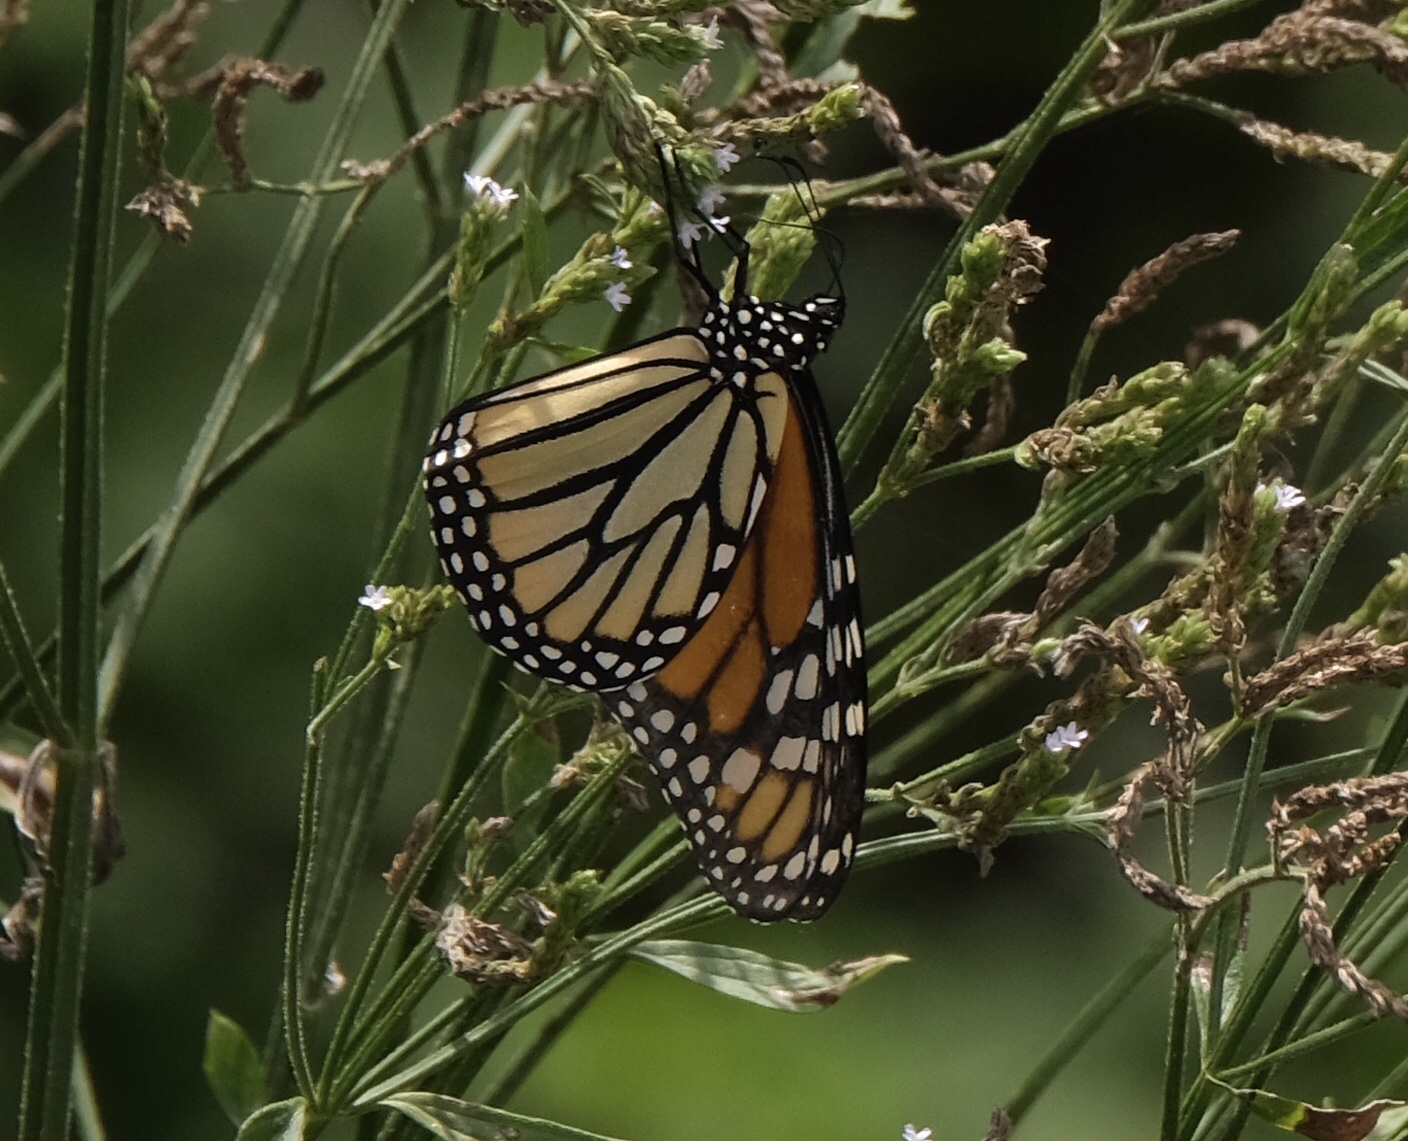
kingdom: Animalia
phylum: Arthropoda
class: Insecta
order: Lepidoptera
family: Nymphalidae
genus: Danaus
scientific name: Danaus plexippus
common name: Monarch
